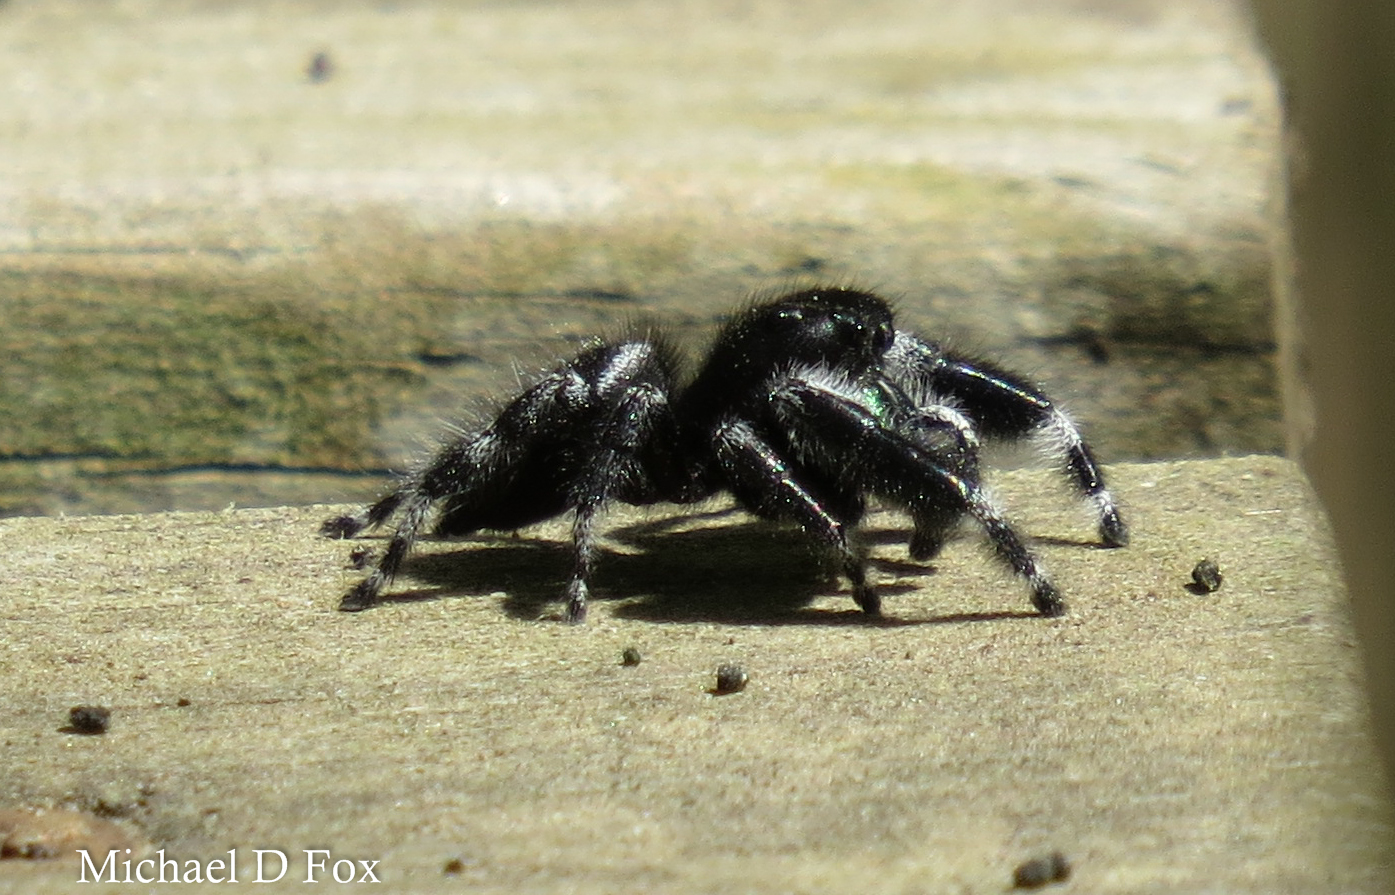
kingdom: Animalia
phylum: Arthropoda
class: Arachnida
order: Araneae
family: Salticidae
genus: Phidippus
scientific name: Phidippus audax
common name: Bold jumper
